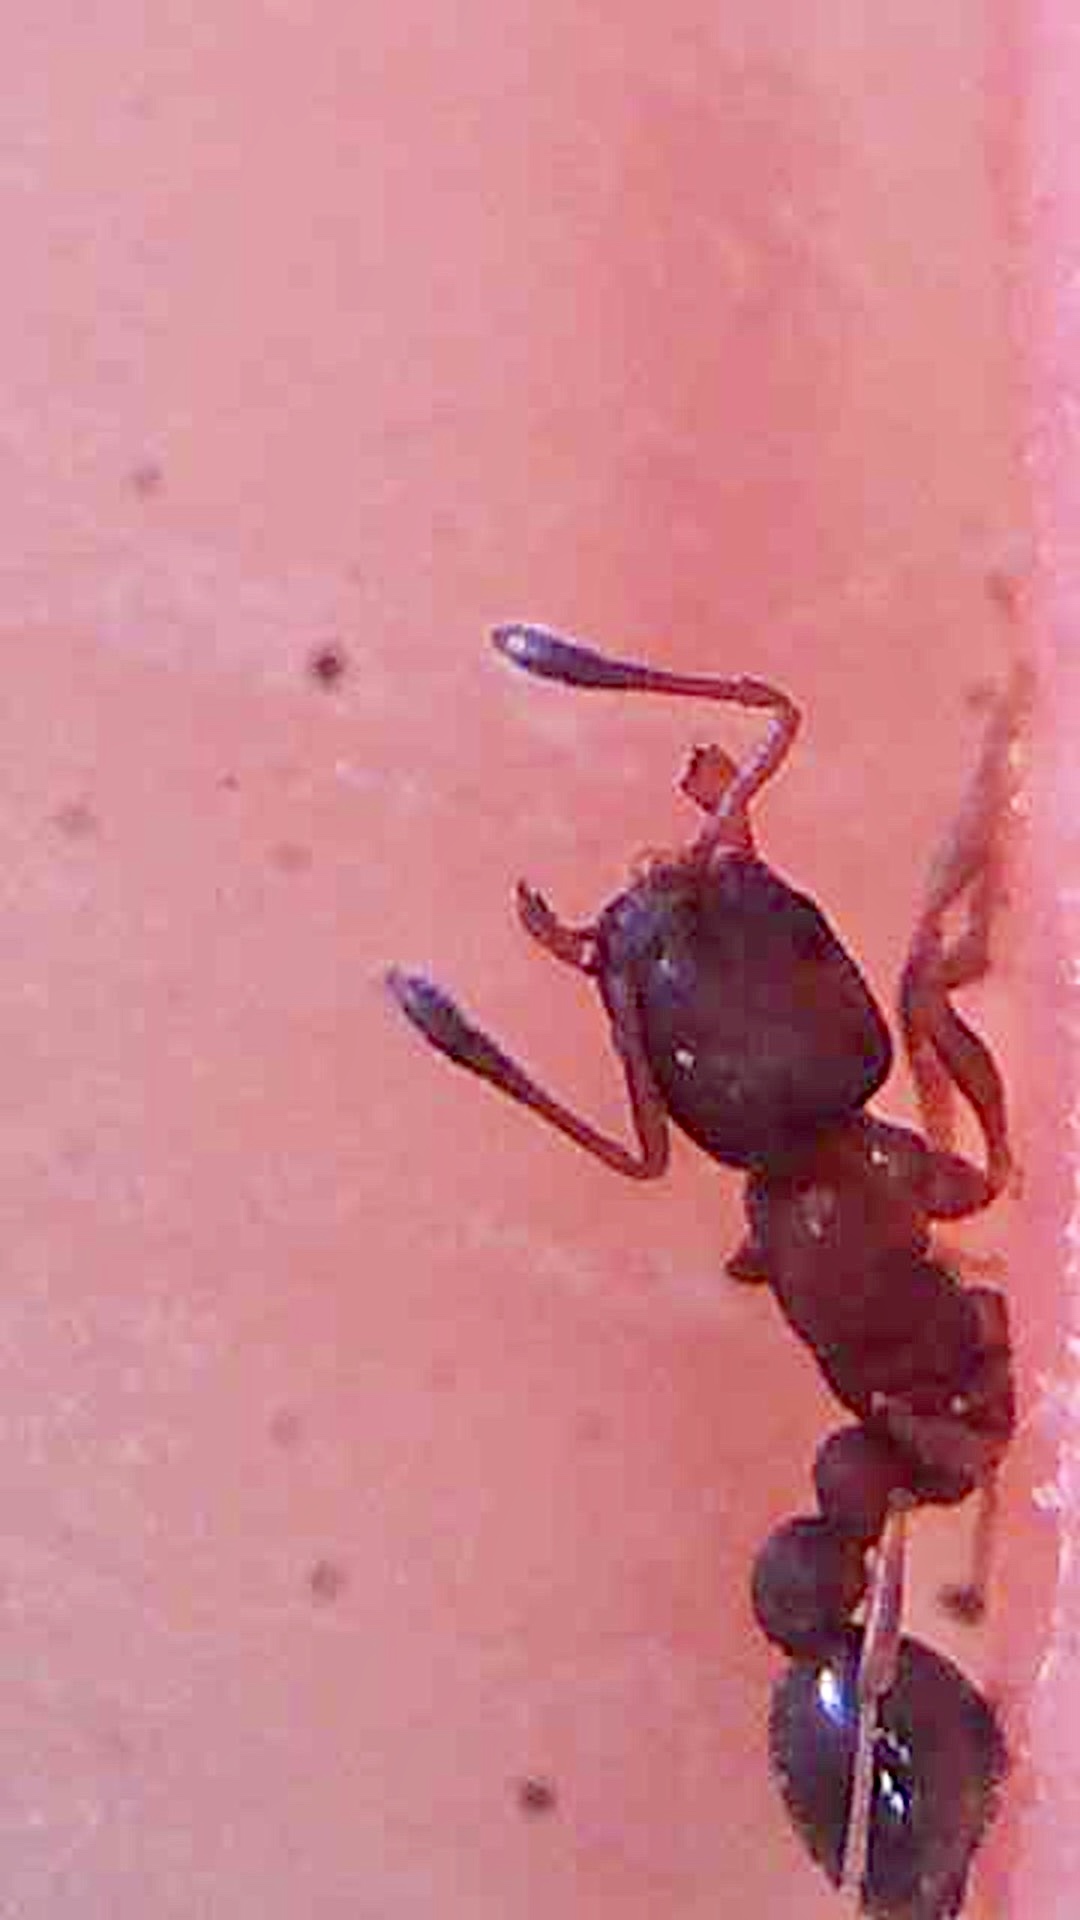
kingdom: Animalia
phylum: Arthropoda
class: Insecta
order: Hymenoptera
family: Formicidae
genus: Cardiocondyla
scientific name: Cardiocondyla
